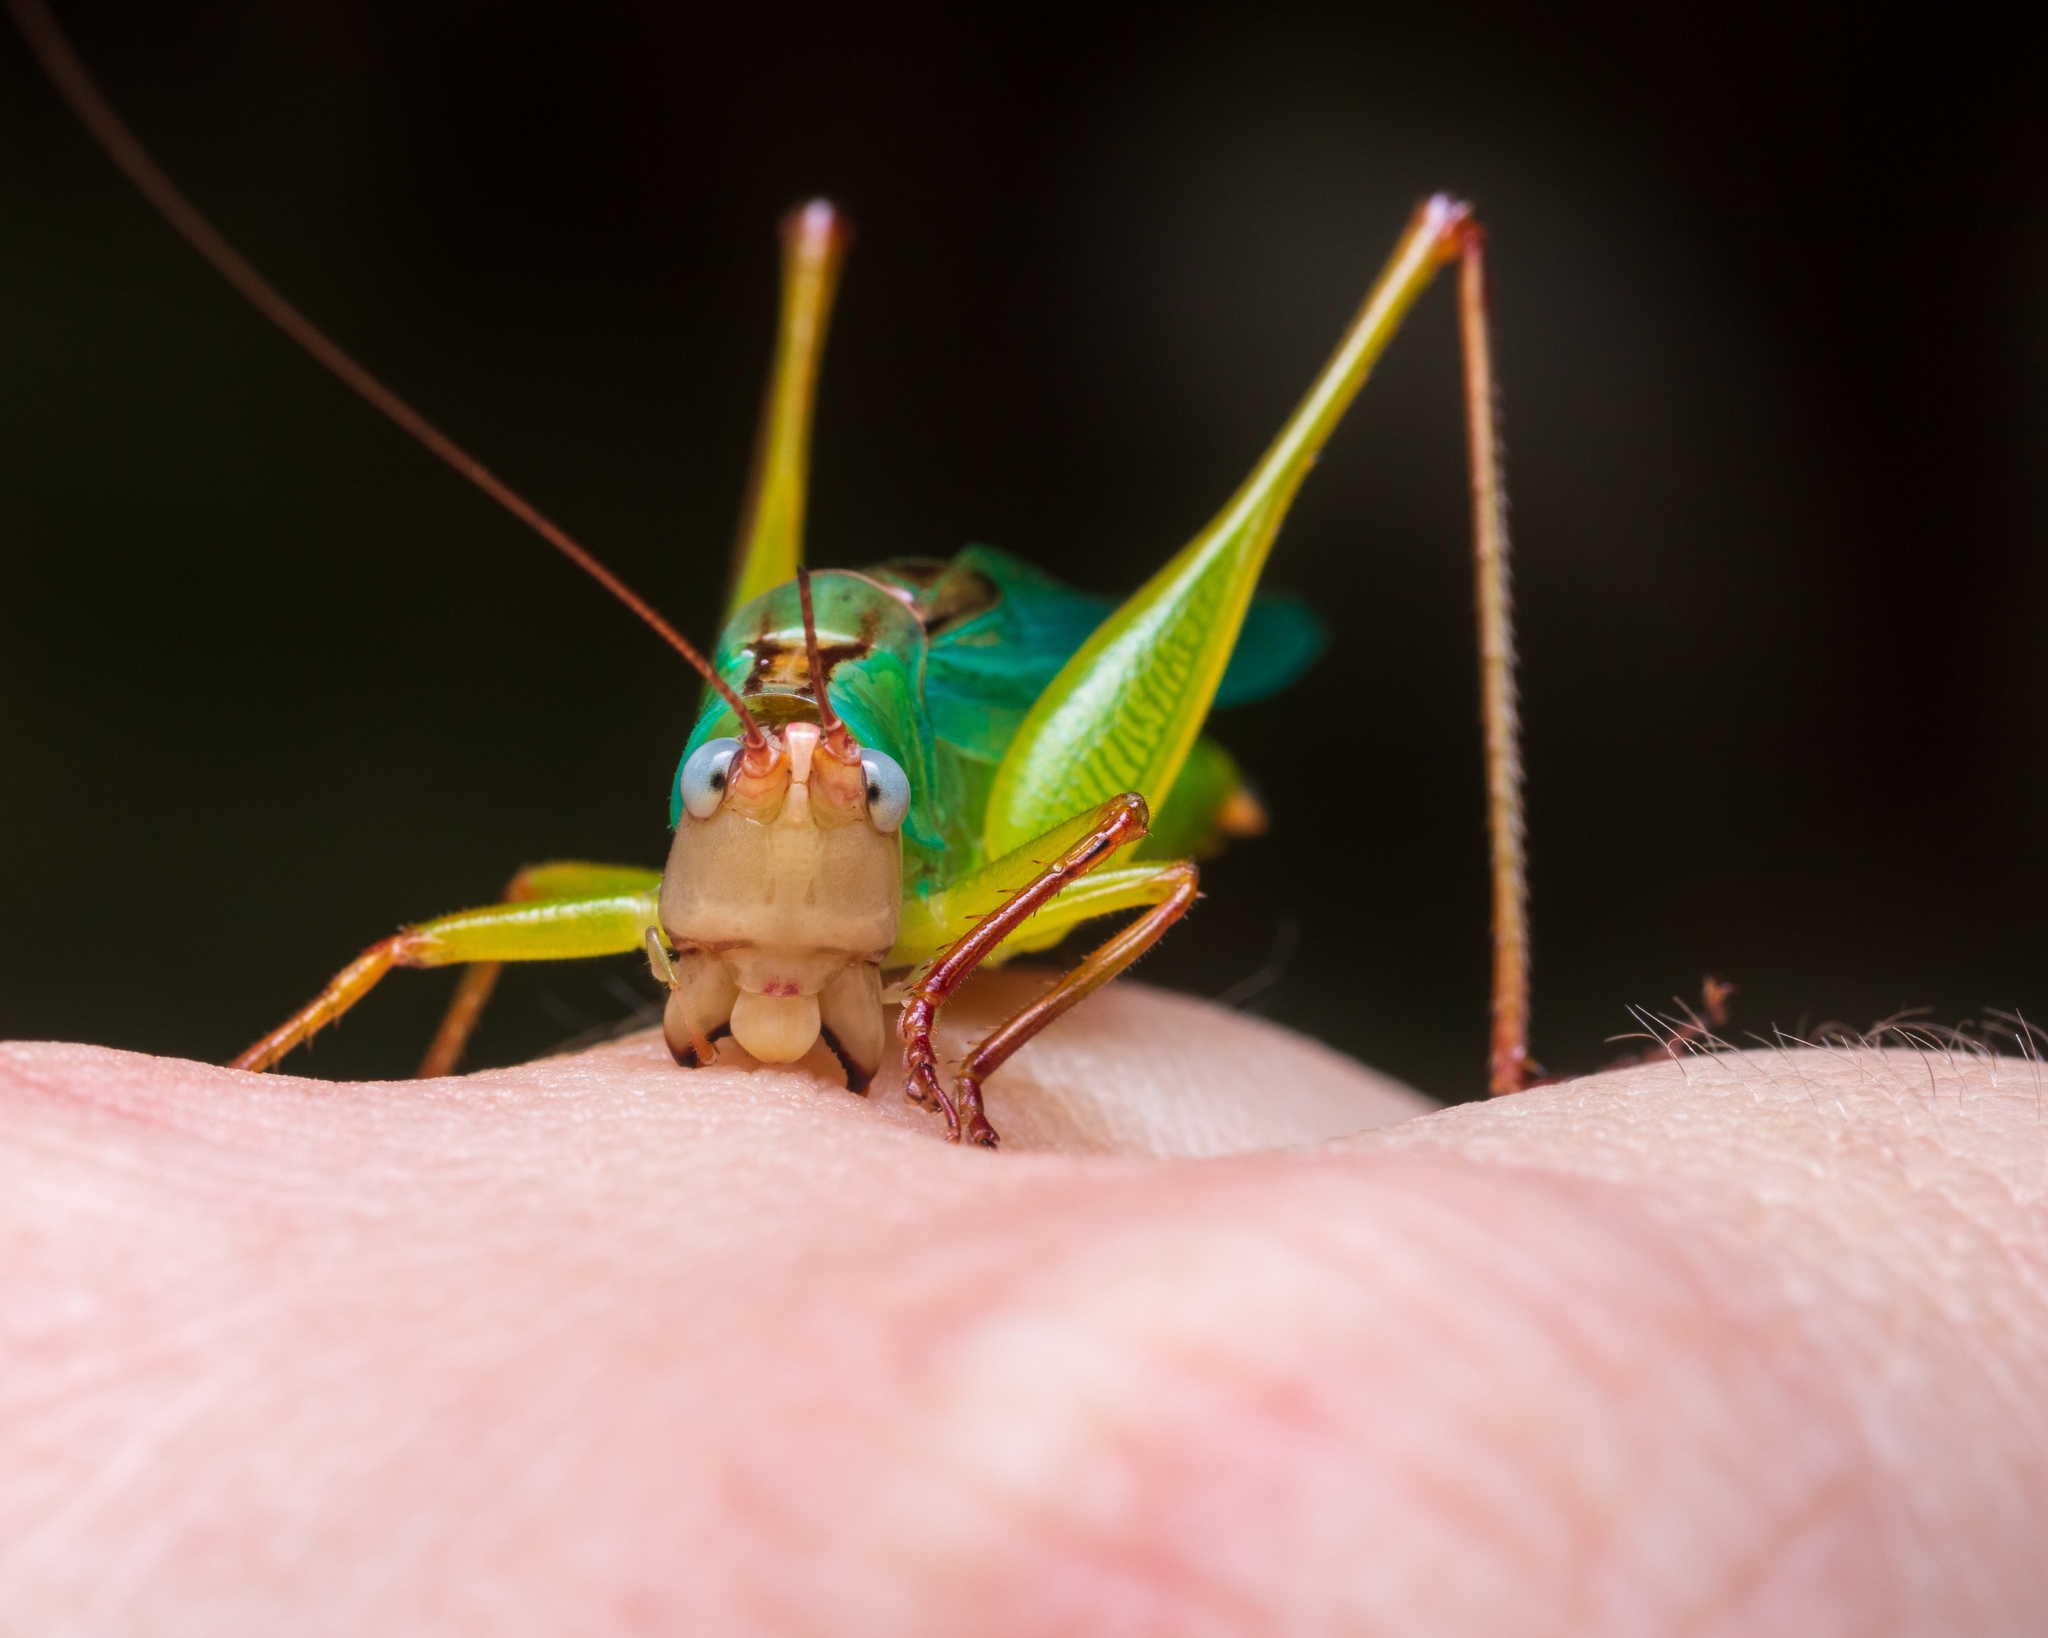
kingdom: Animalia
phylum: Arthropoda
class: Insecta
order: Orthoptera
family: Tettigoniidae
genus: Orchelimum
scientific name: Orchelimum pulchellum
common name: Handsome meadow katydid
